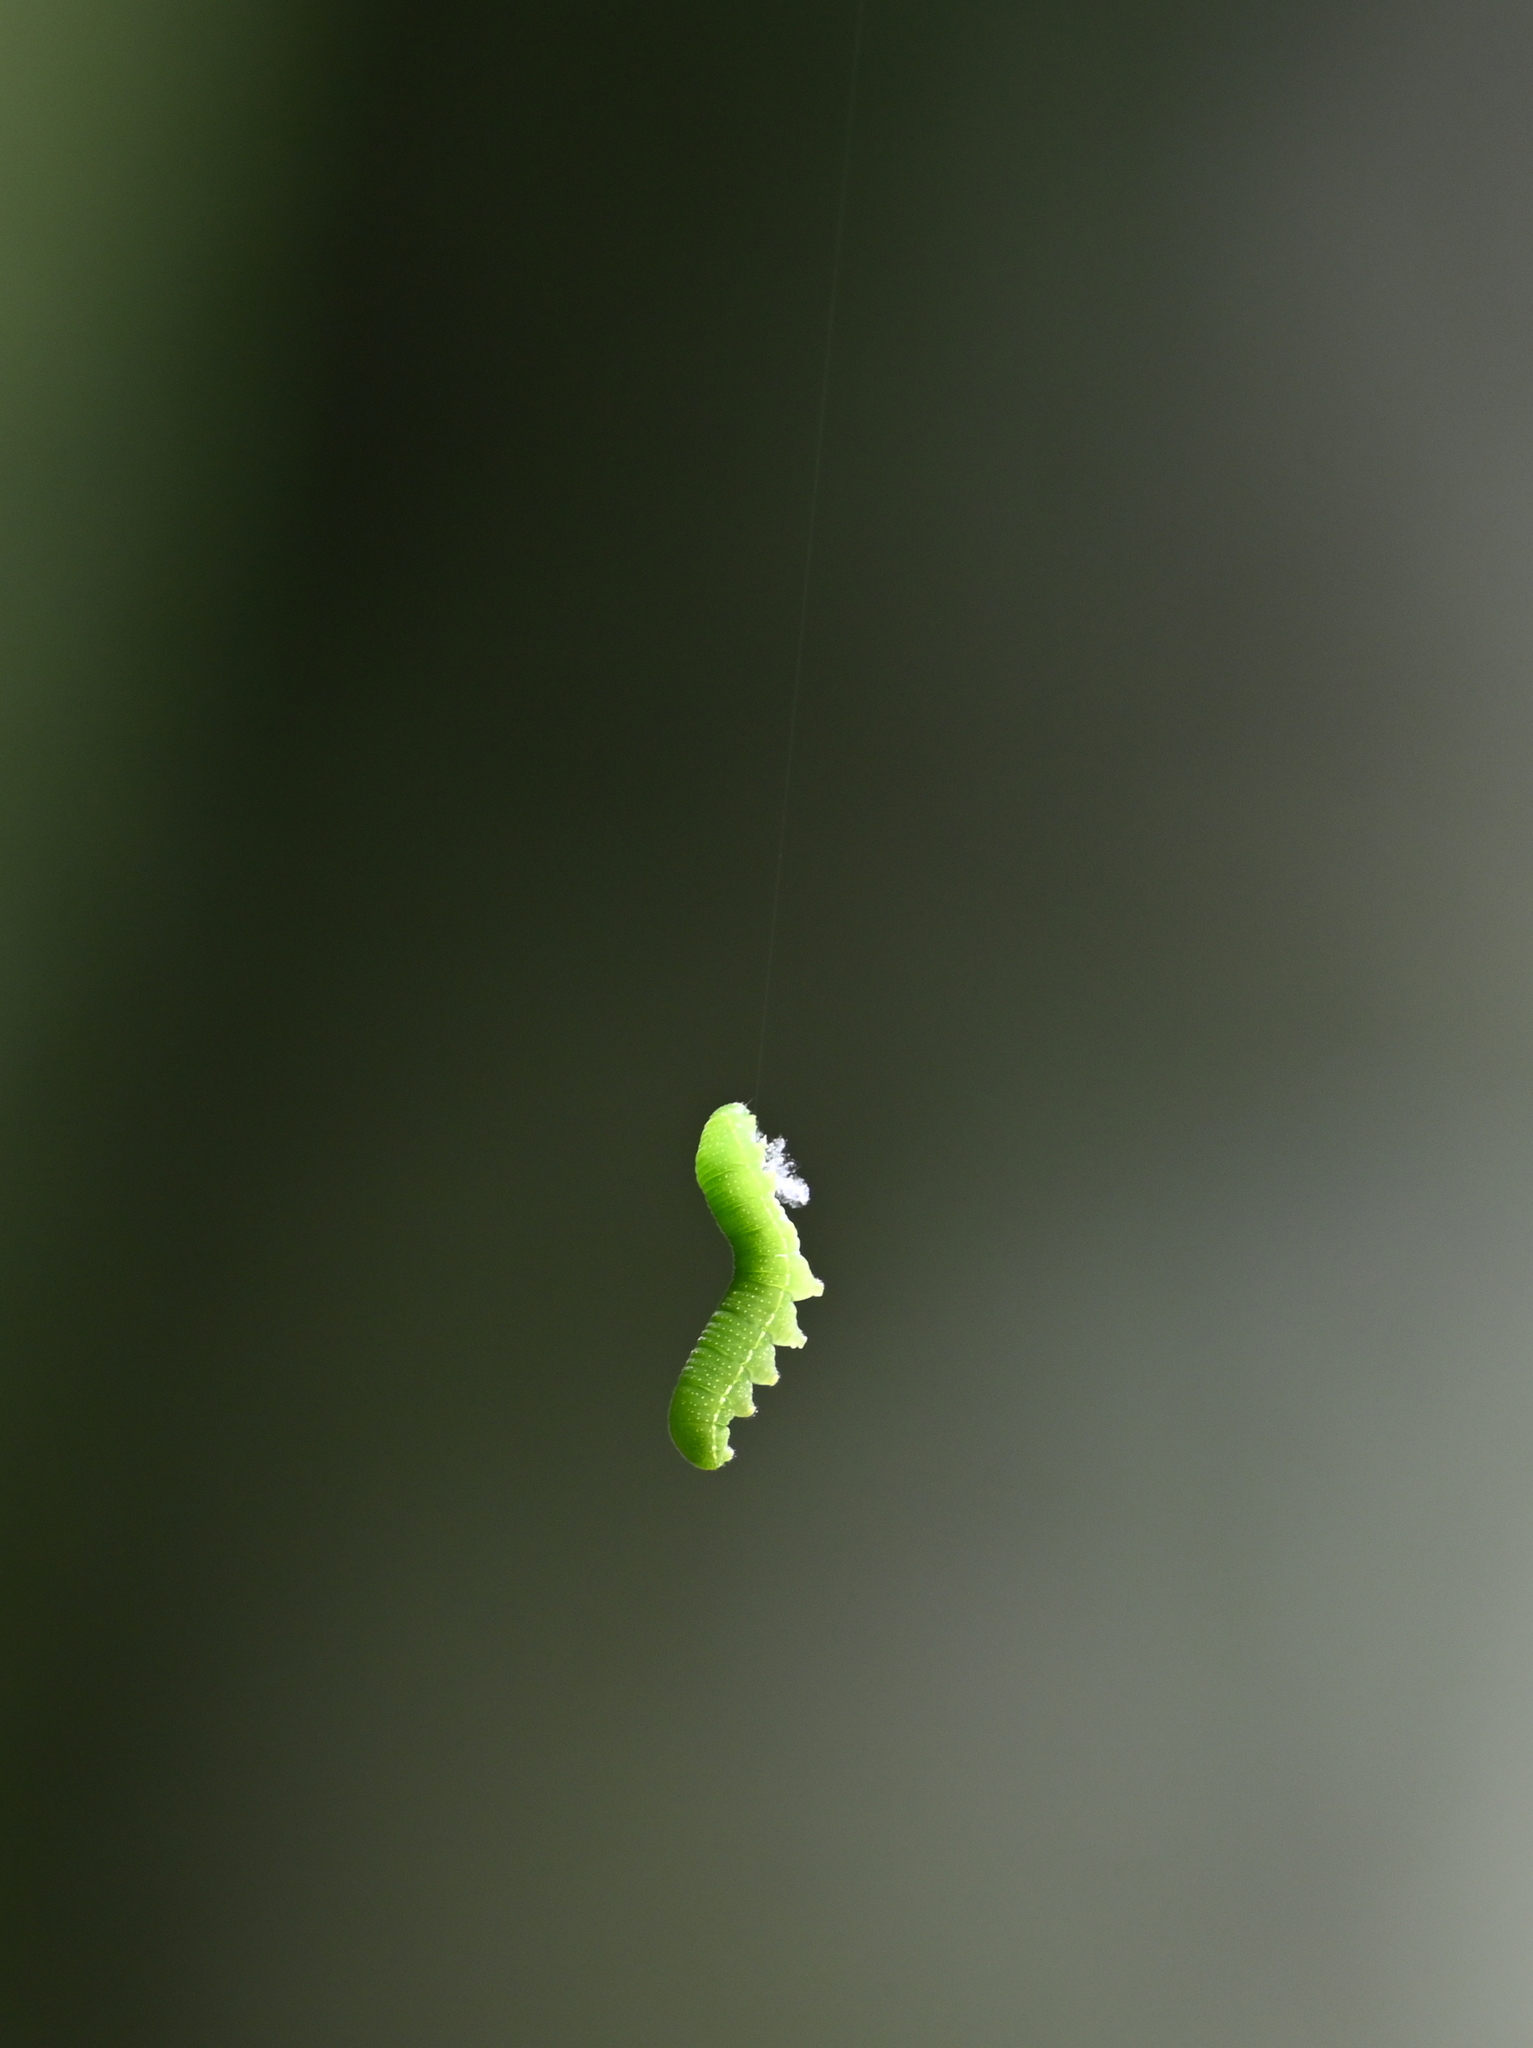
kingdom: Animalia
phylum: Arthropoda
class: Insecta
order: Lepidoptera
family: Nymphalidae
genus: Libytheana
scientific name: Libytheana carinenta
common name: American snout
